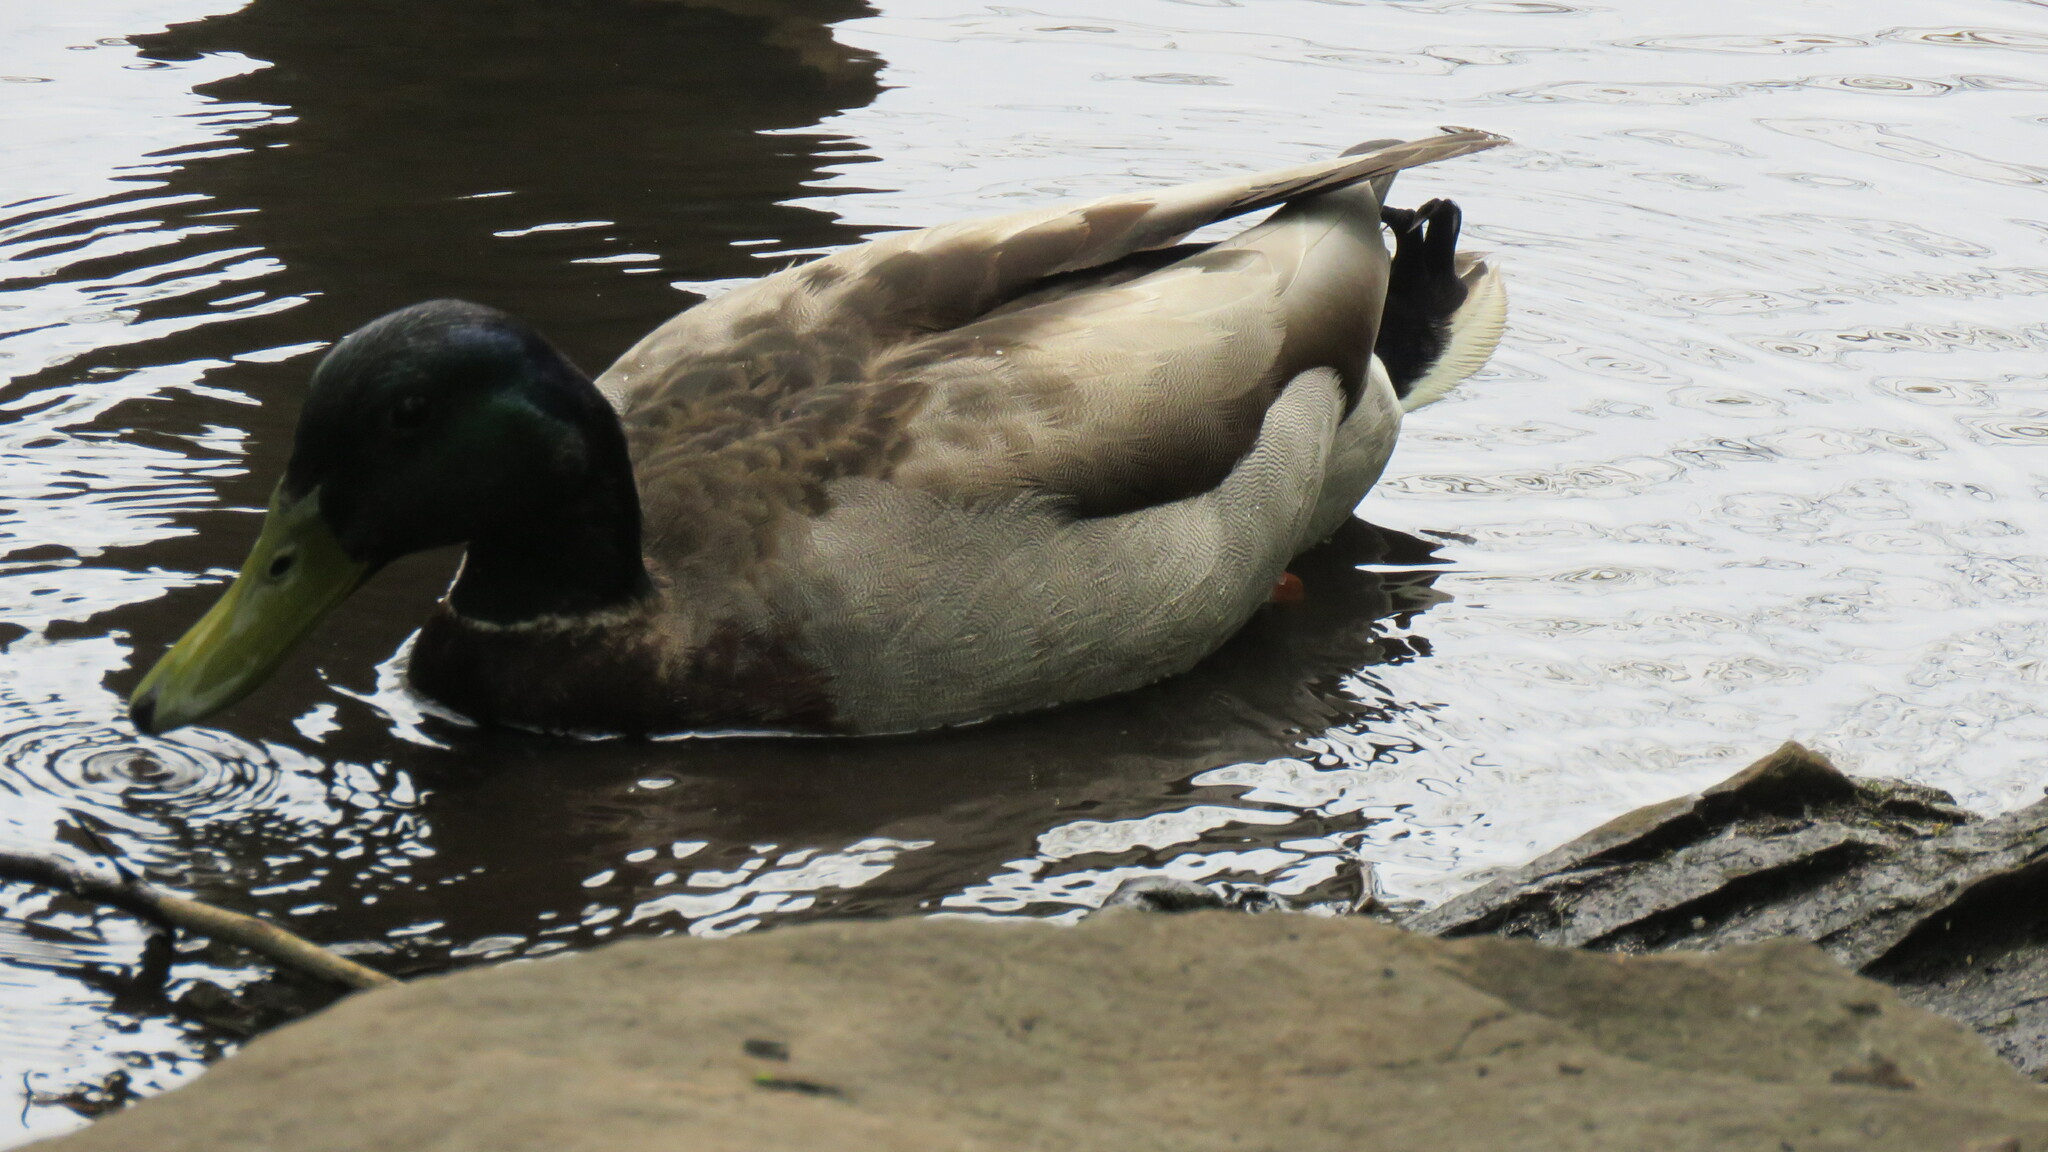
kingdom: Animalia
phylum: Chordata
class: Aves
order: Anseriformes
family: Anatidae
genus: Anas
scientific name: Anas platyrhynchos
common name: Mallard
